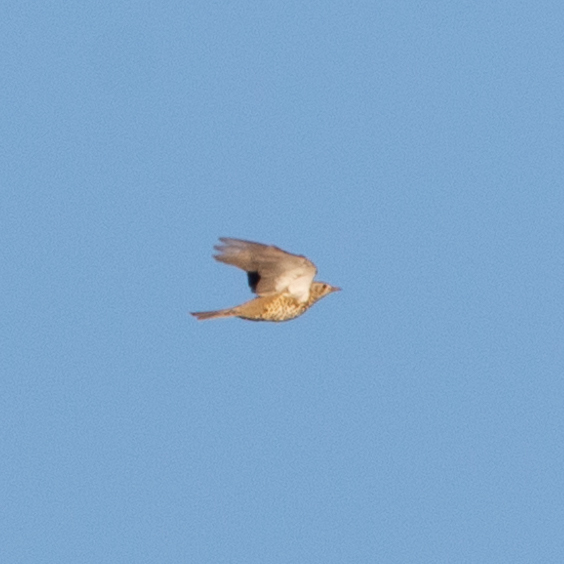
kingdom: Animalia
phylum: Chordata
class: Aves
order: Passeriformes
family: Turdidae
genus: Turdus
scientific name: Turdus viscivorus
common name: Mistle thrush
